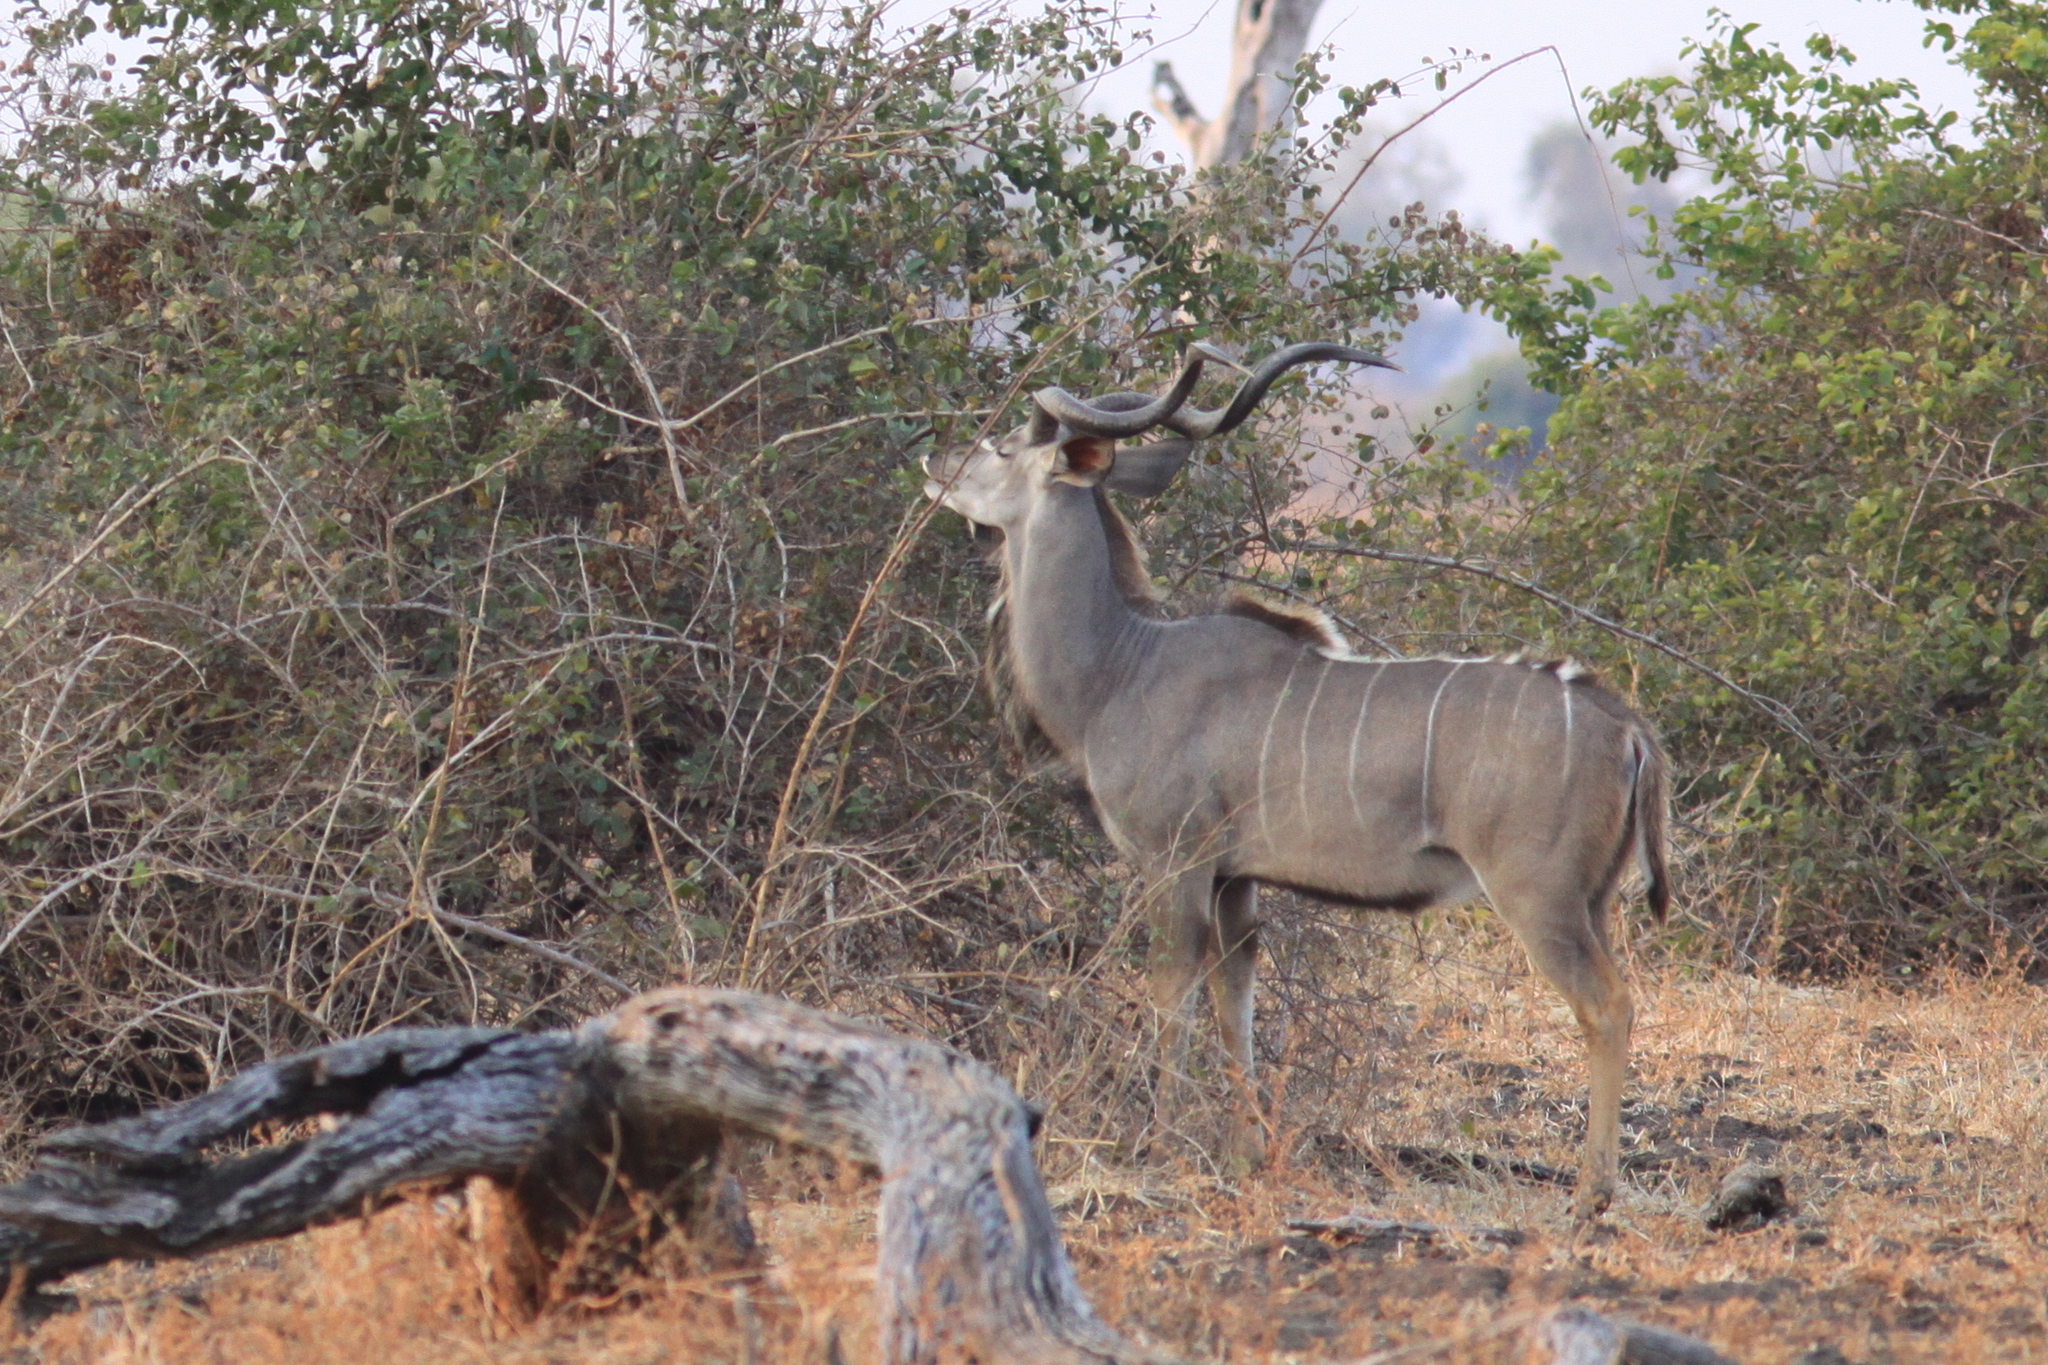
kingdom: Animalia
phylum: Chordata
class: Mammalia
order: Artiodactyla
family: Bovidae
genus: Tragelaphus
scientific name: Tragelaphus strepsiceros
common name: Greater kudu
